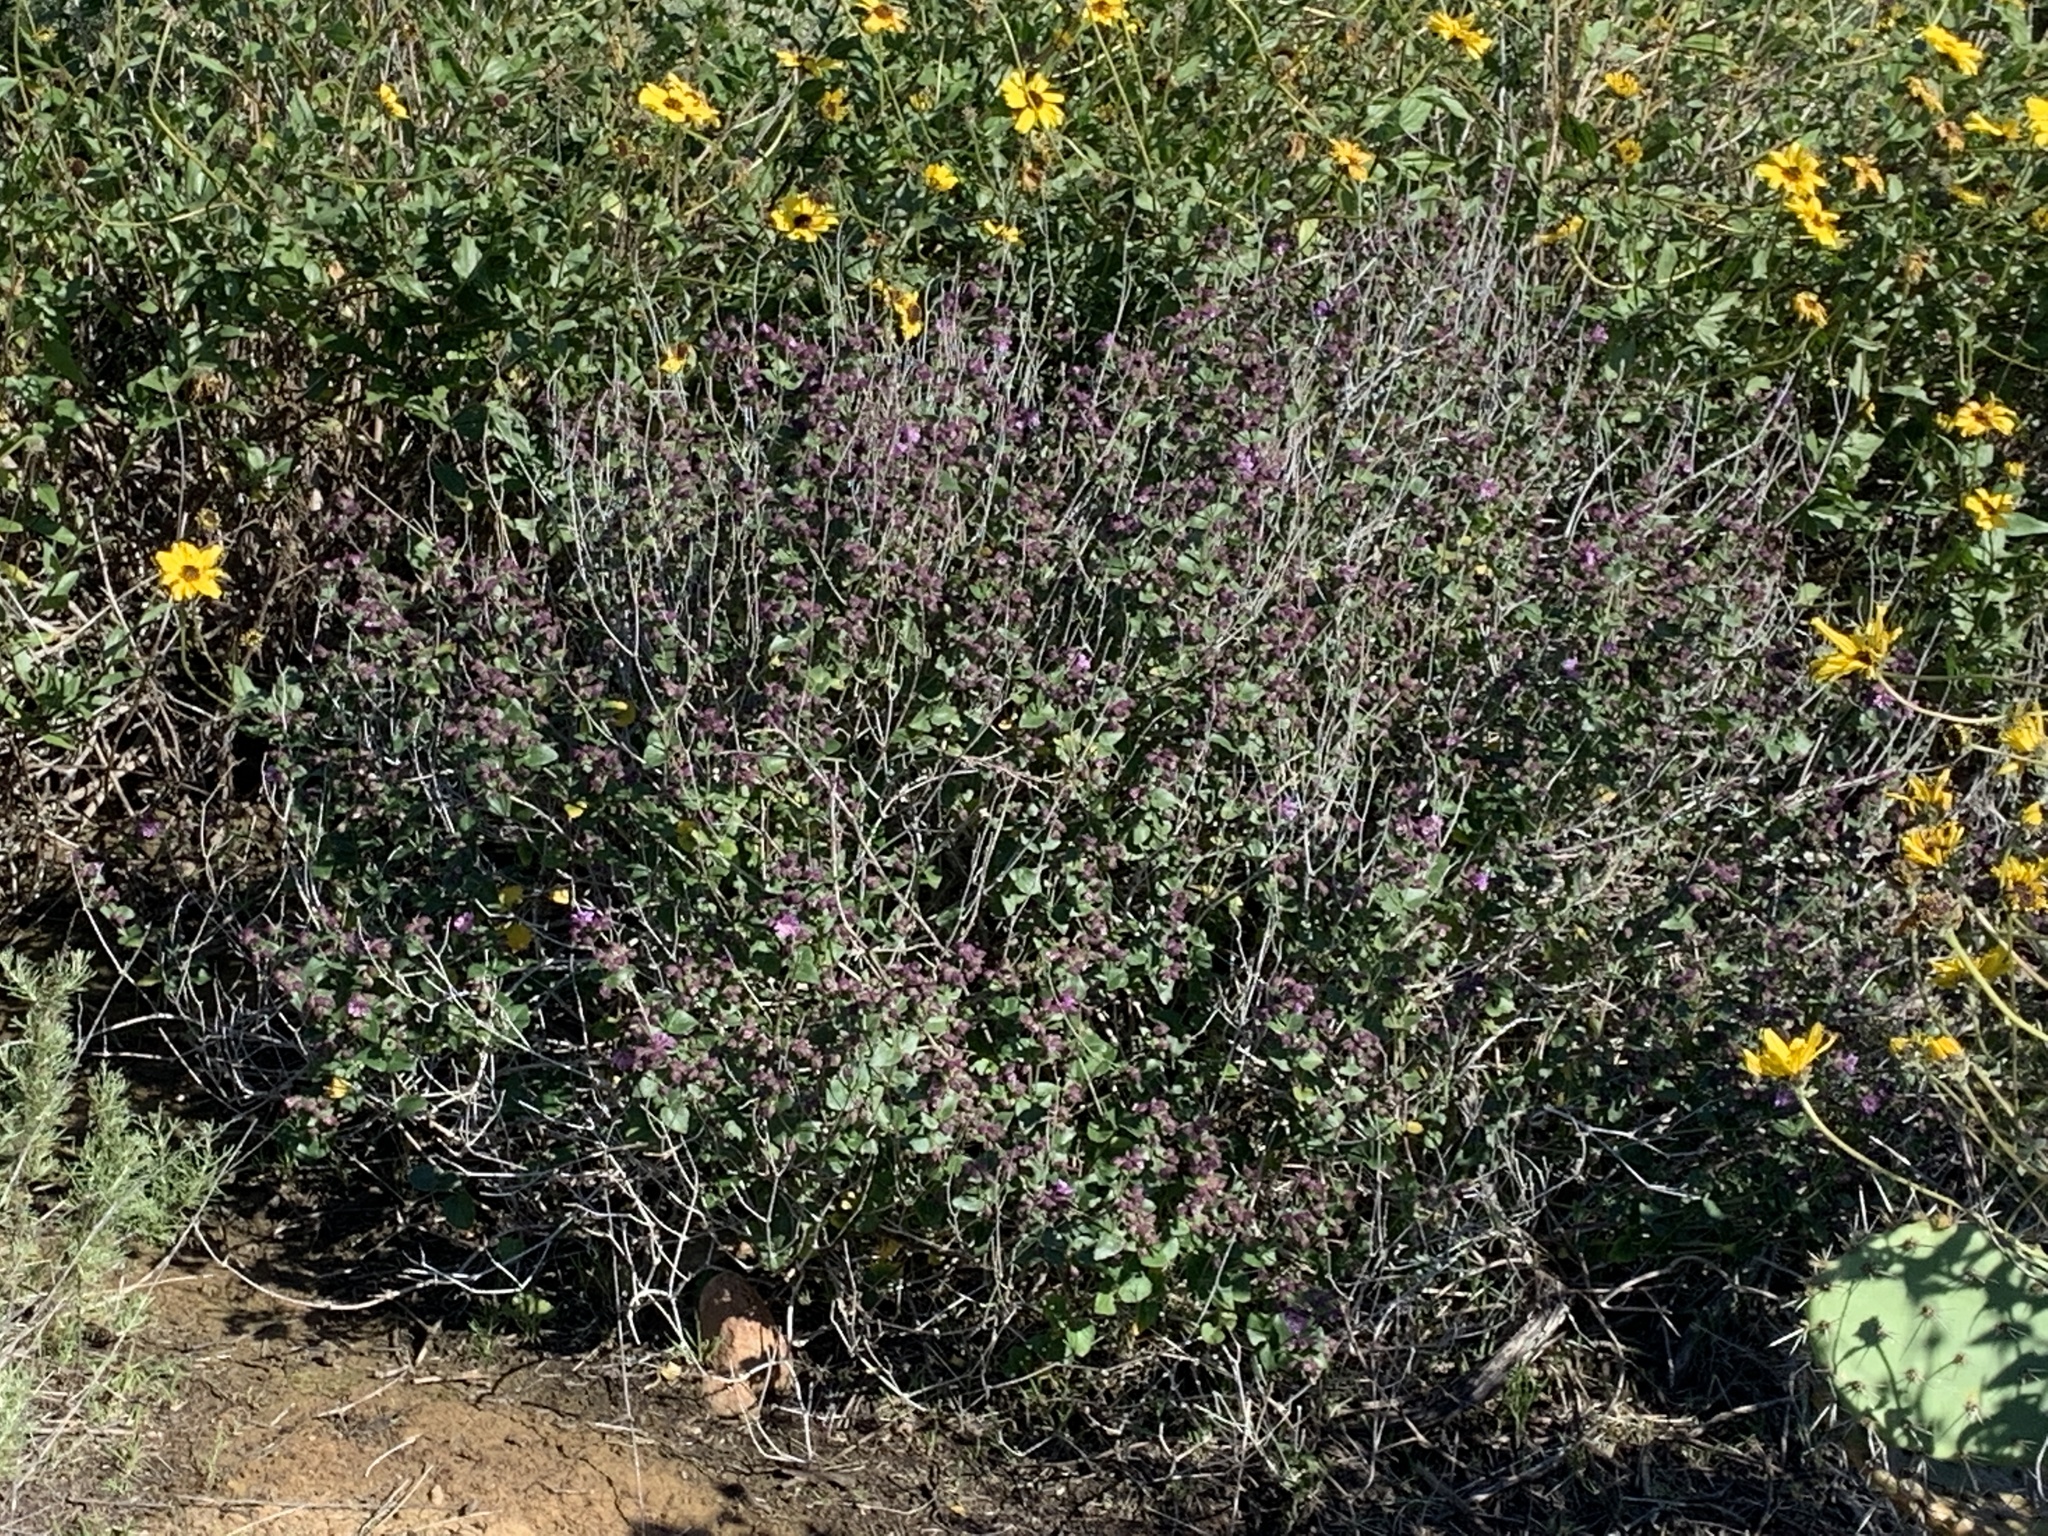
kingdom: Plantae
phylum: Tracheophyta
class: Magnoliopsida
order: Caryophyllales
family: Nyctaginaceae
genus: Mirabilis
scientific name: Mirabilis laevis
